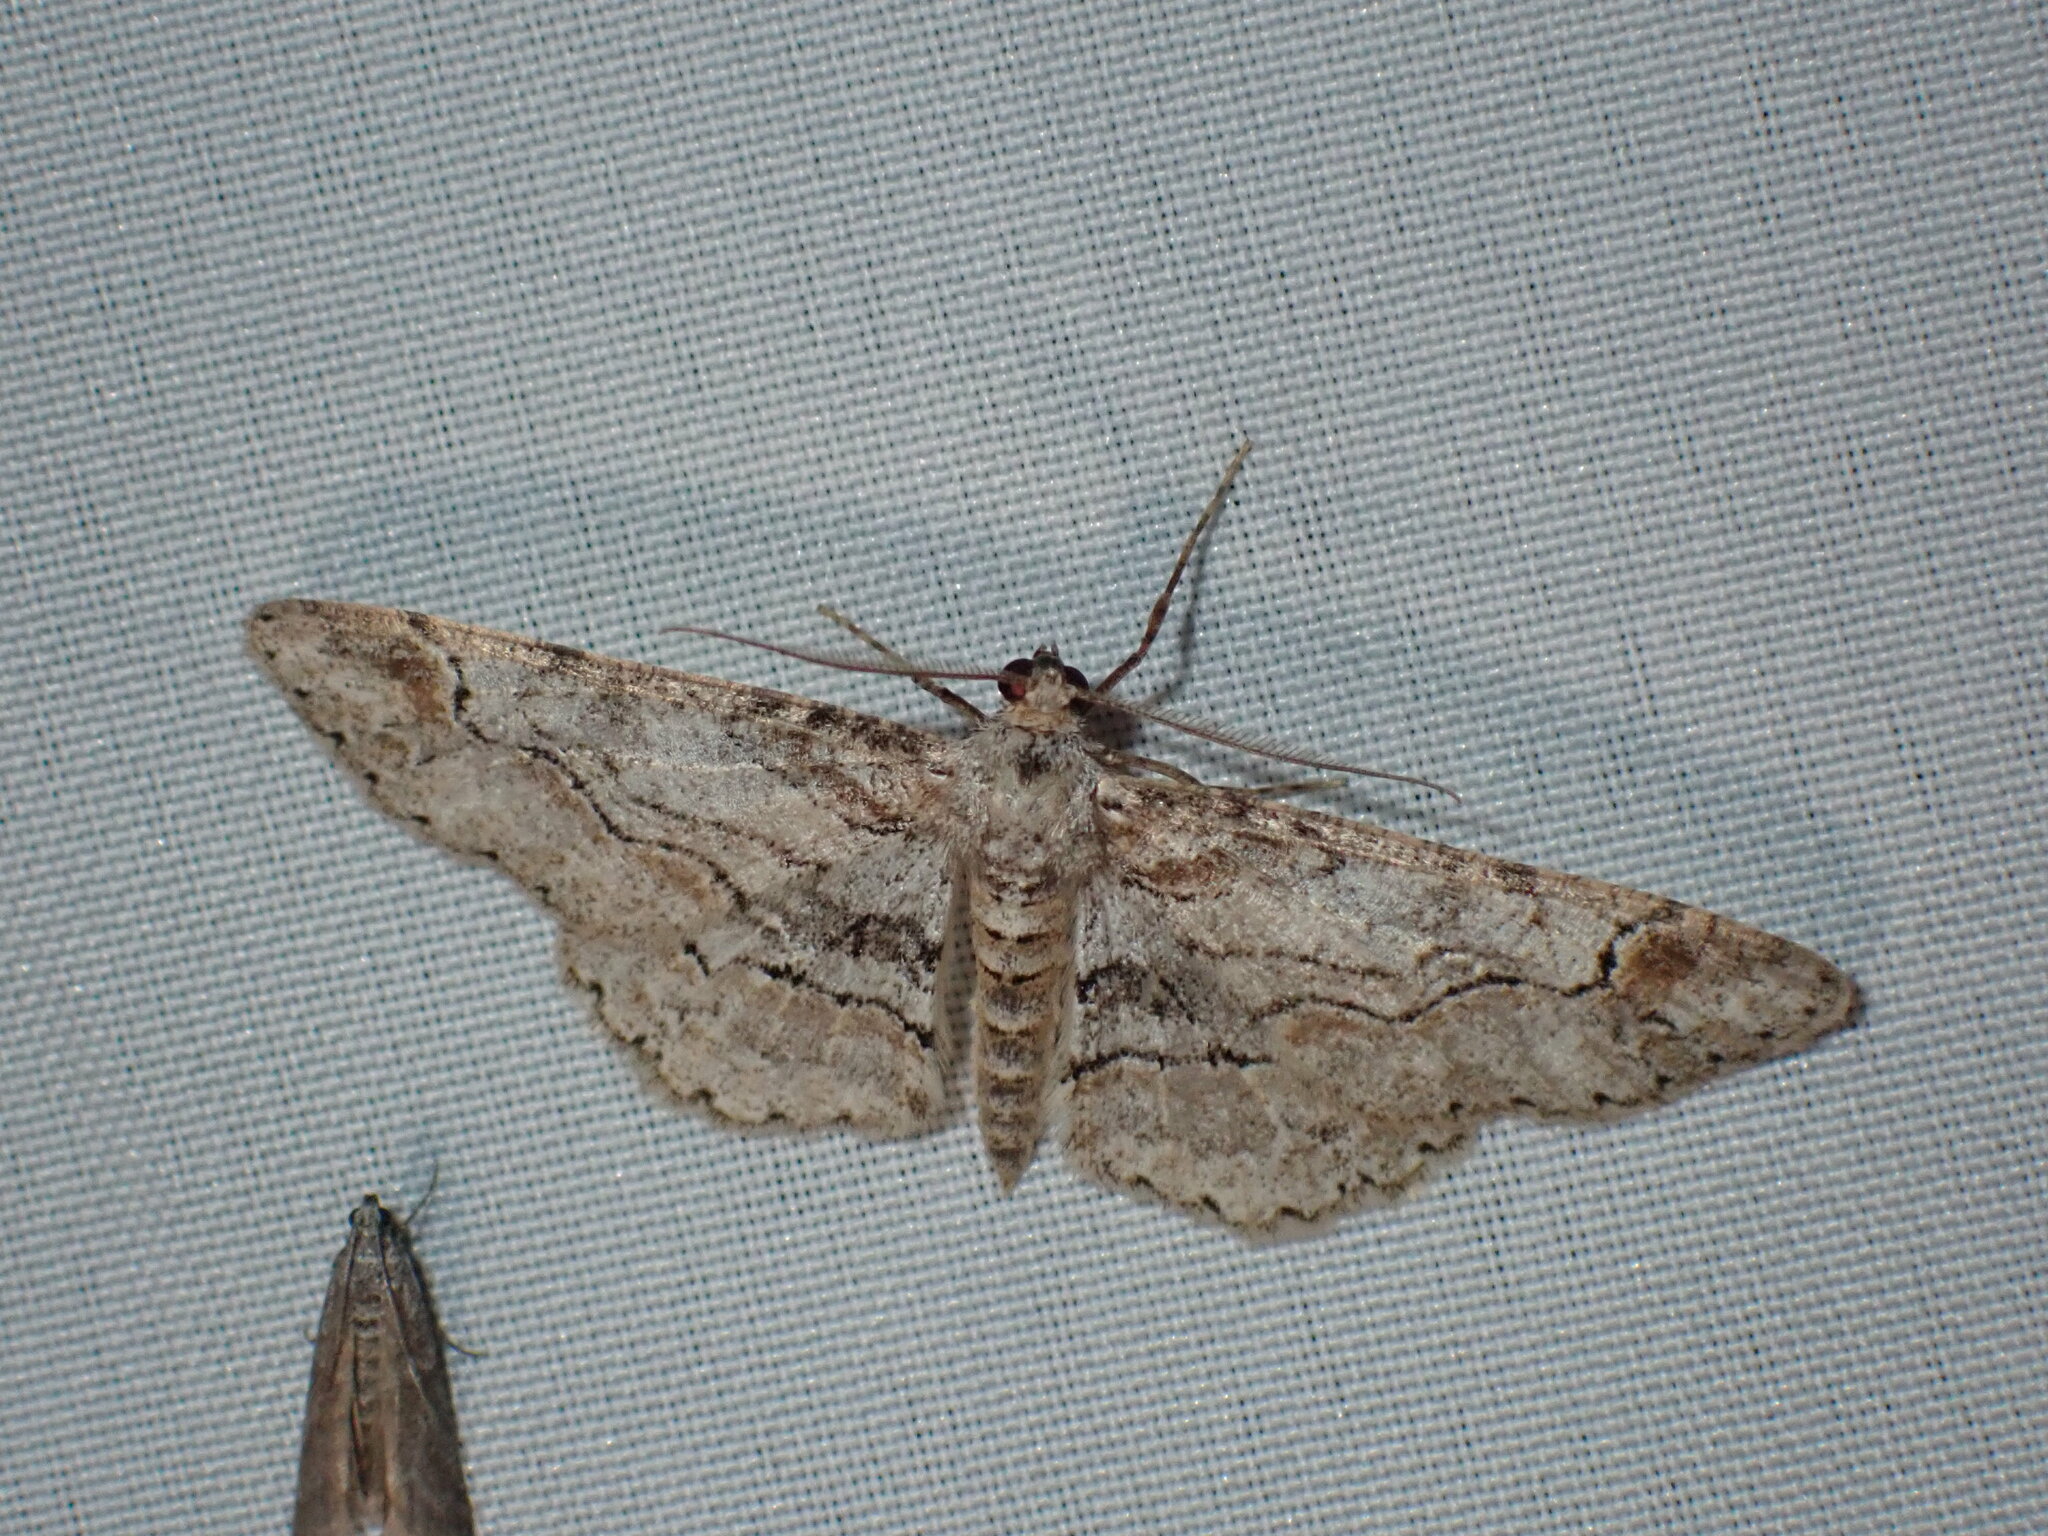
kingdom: Animalia
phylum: Arthropoda
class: Insecta
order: Lepidoptera
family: Geometridae
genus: Iridopsis
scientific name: Iridopsis emasculatum
